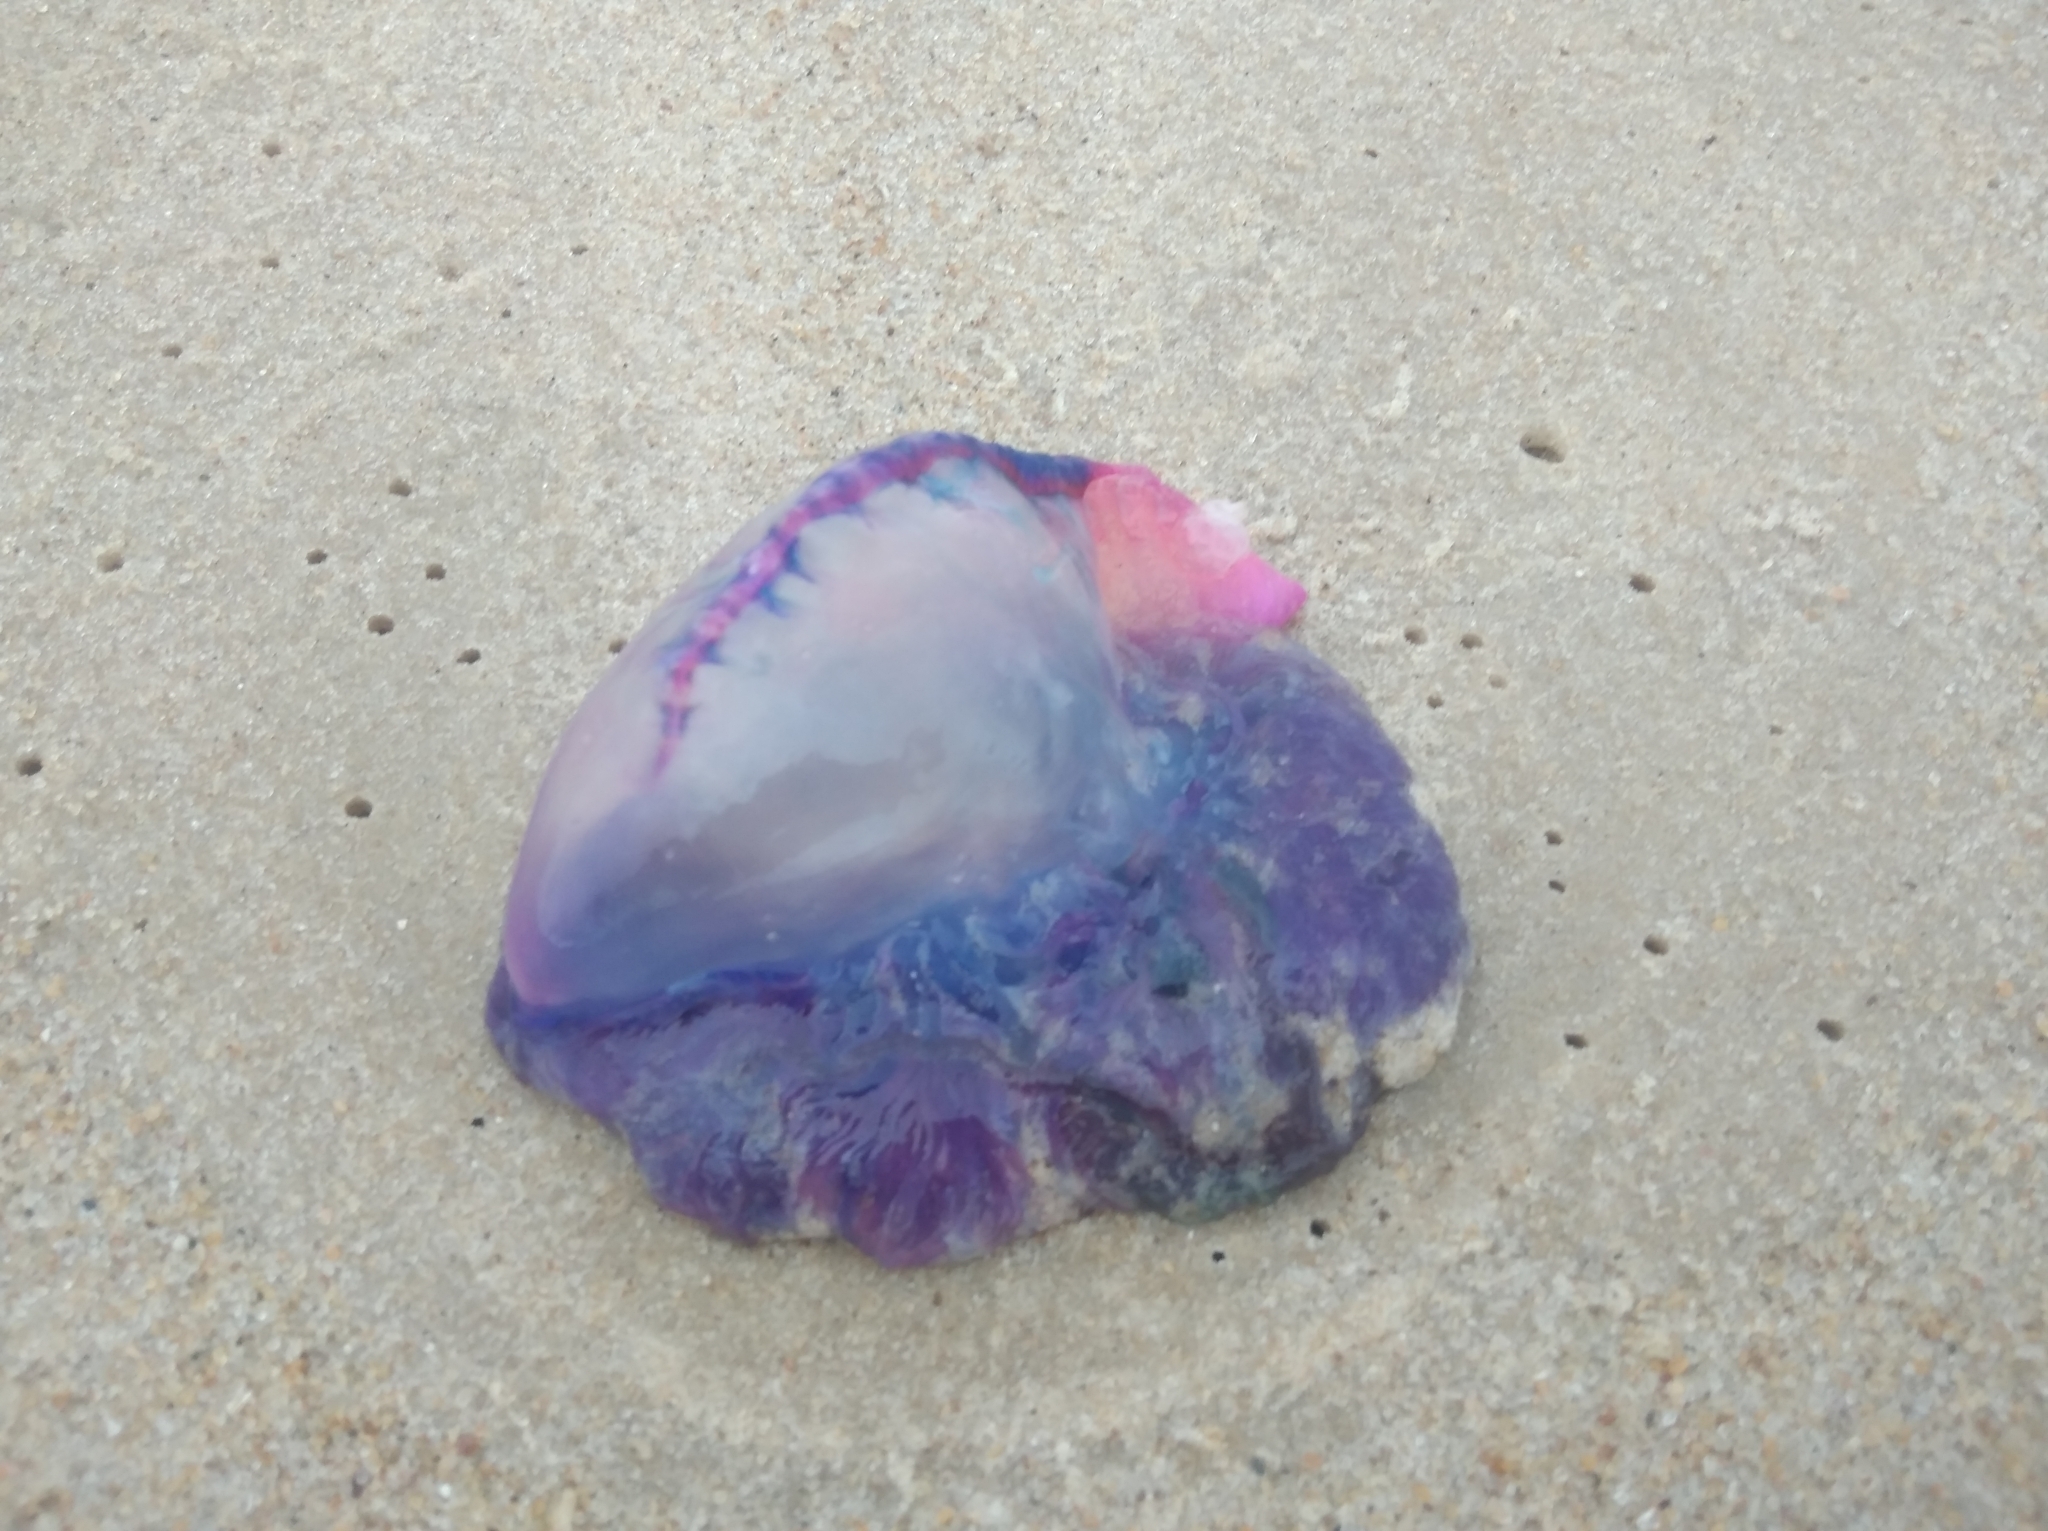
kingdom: Animalia
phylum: Cnidaria
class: Hydrozoa
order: Siphonophorae
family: Physaliidae
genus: Physalia
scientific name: Physalia physalis
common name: Portuguese man-of-war
